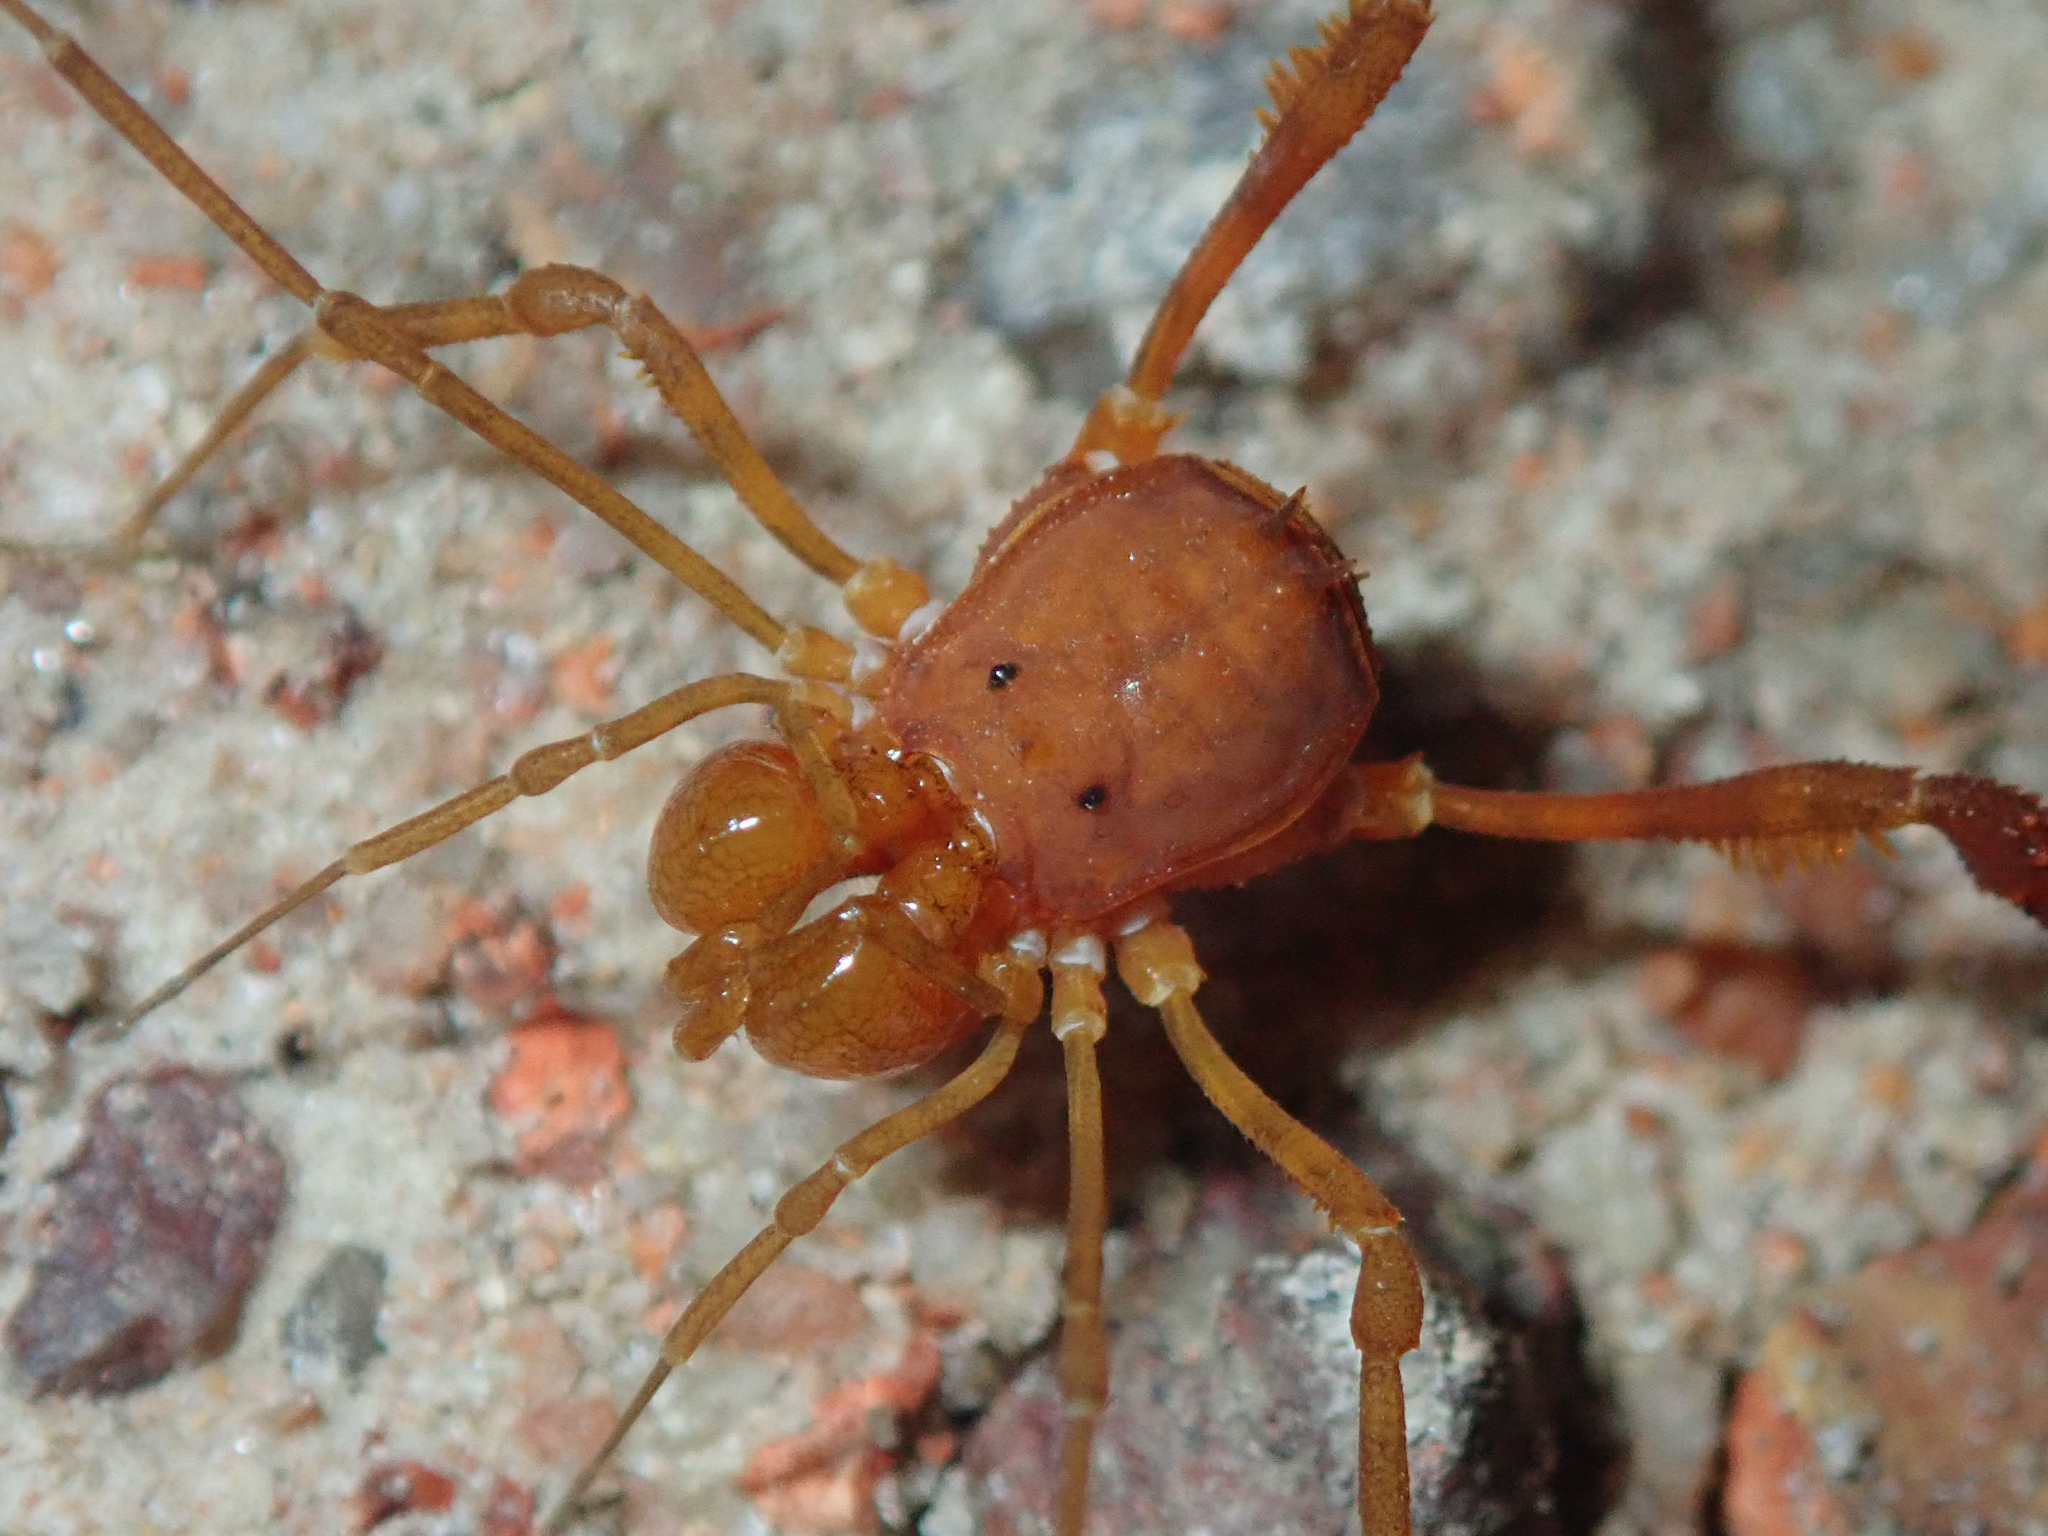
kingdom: Animalia
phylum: Arthropoda
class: Arachnida
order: Opiliones
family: Stygnidae
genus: Stygnus
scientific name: Stygnus polyacanthus
